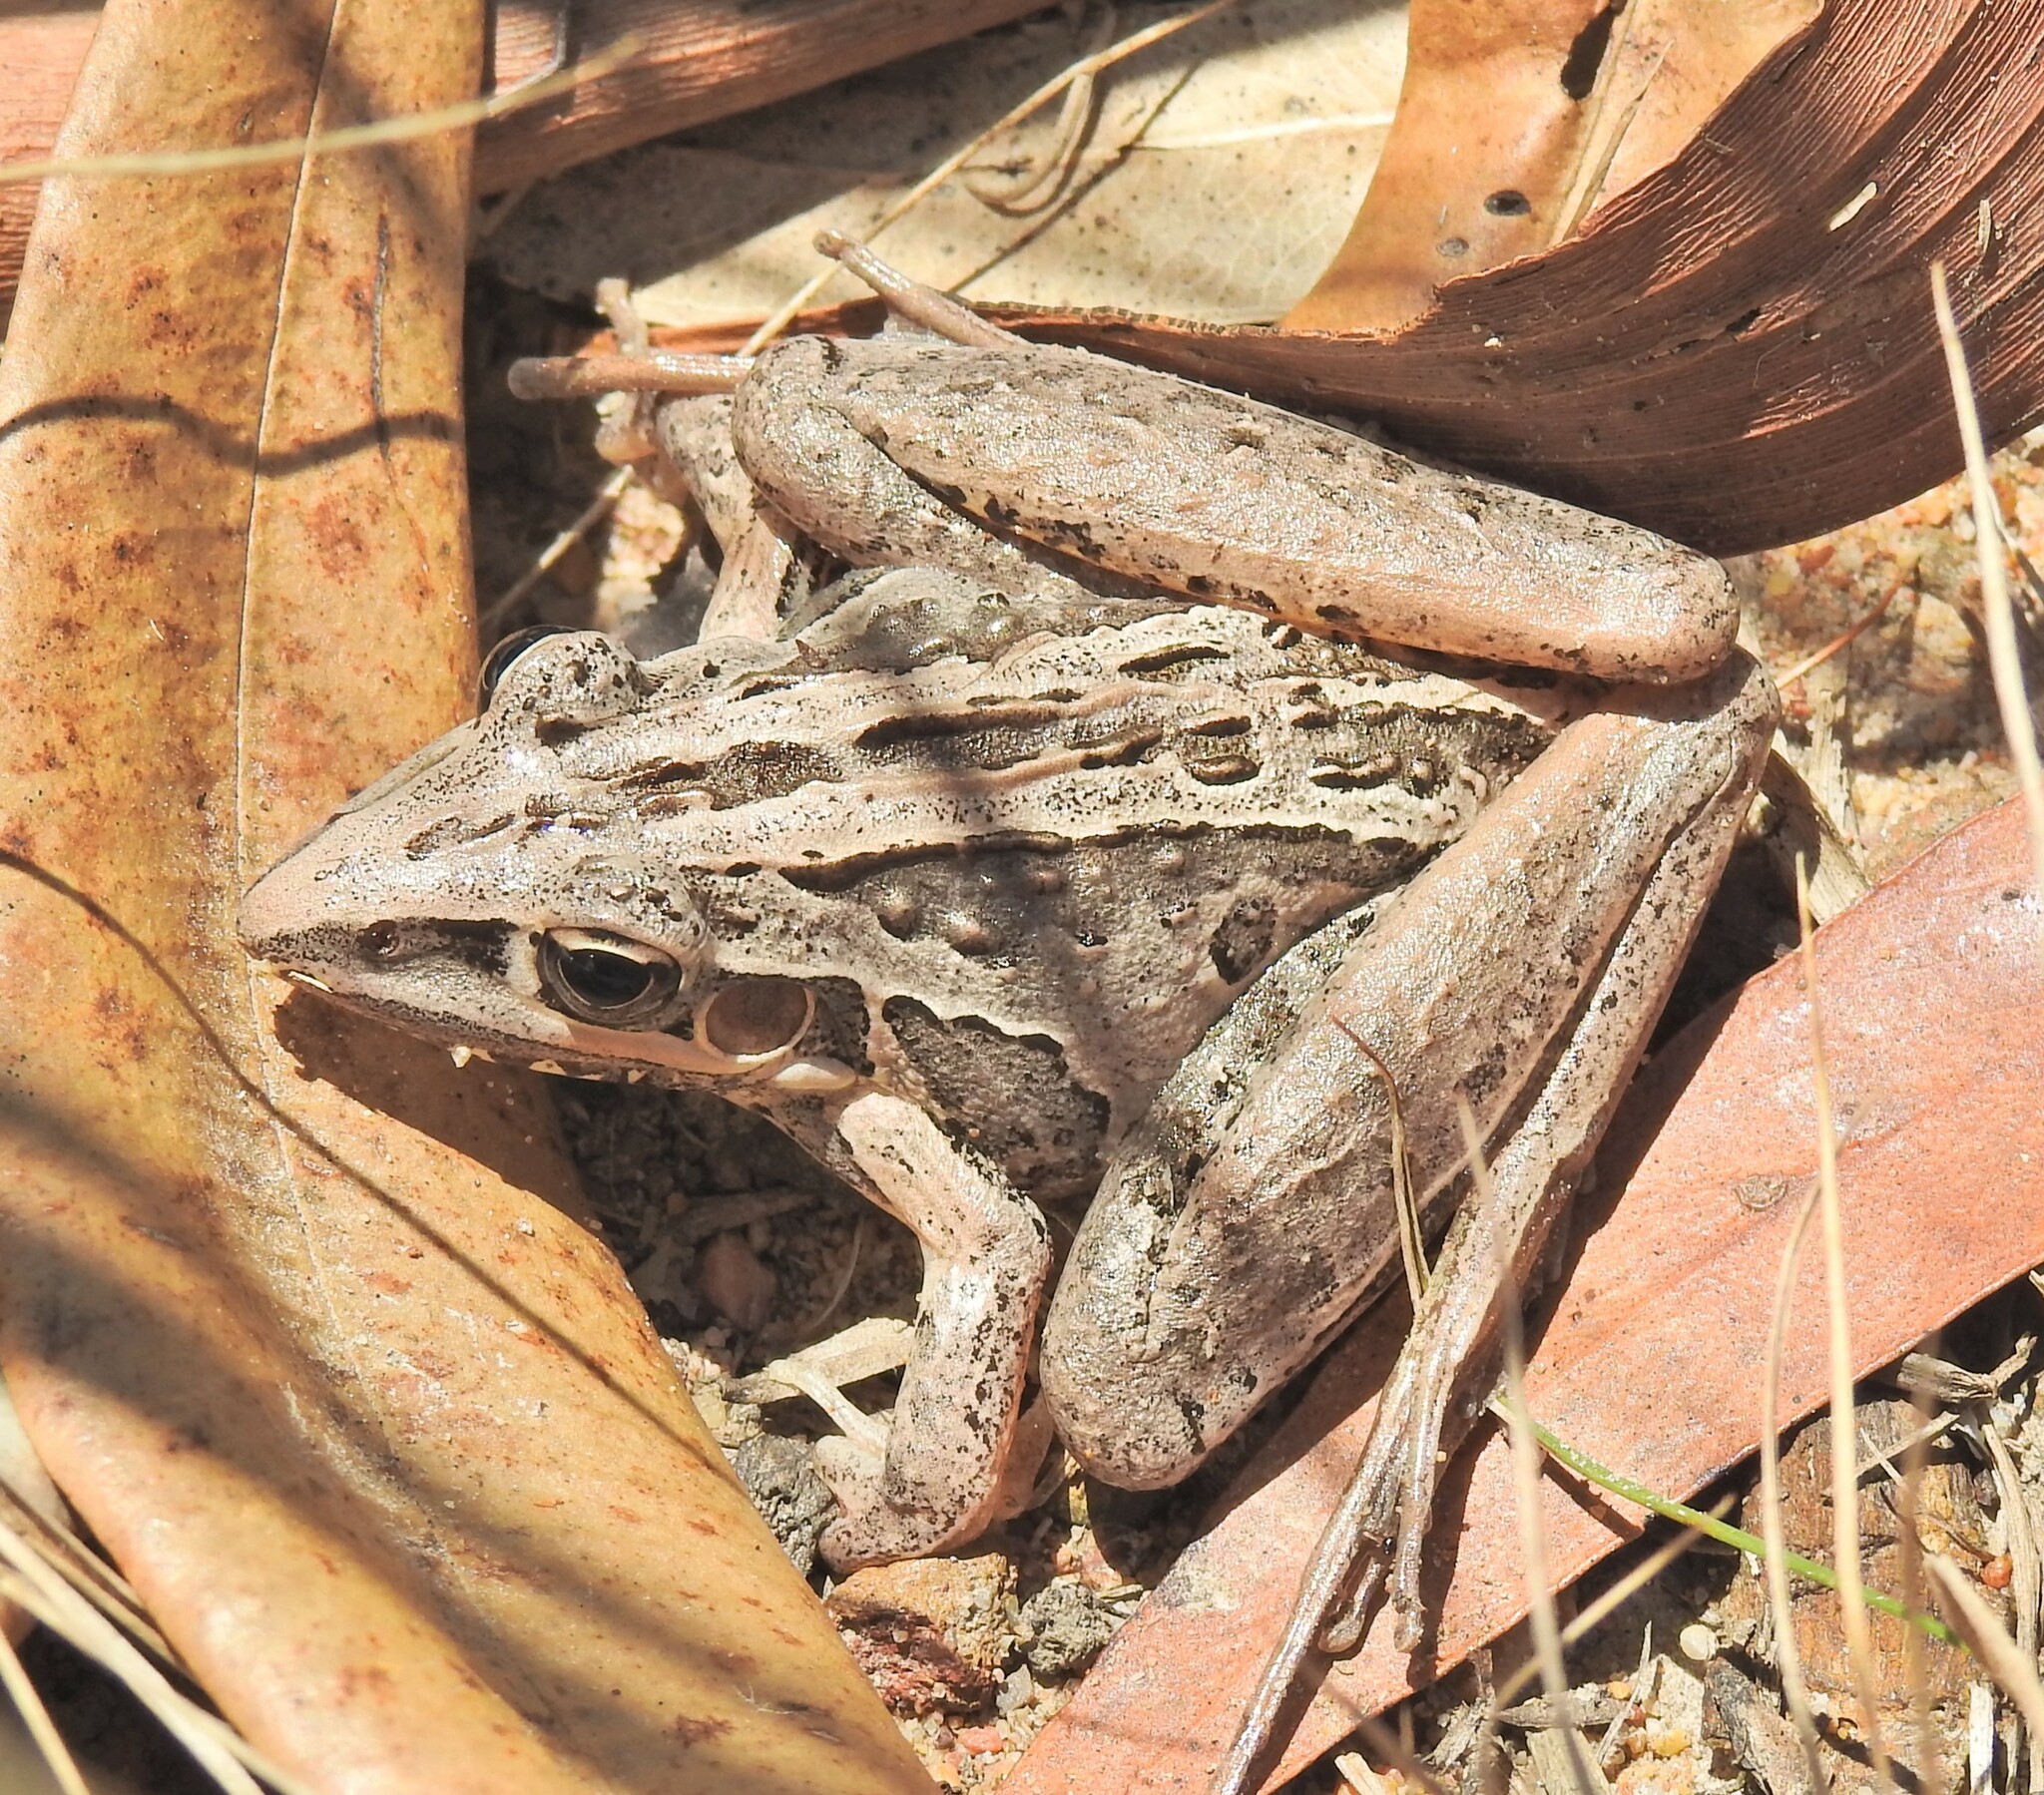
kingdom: Animalia
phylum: Chordata
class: Amphibia
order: Anura
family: Pelodryadidae
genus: Litoria
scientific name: Litoria nasuta
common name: Rocket frog
